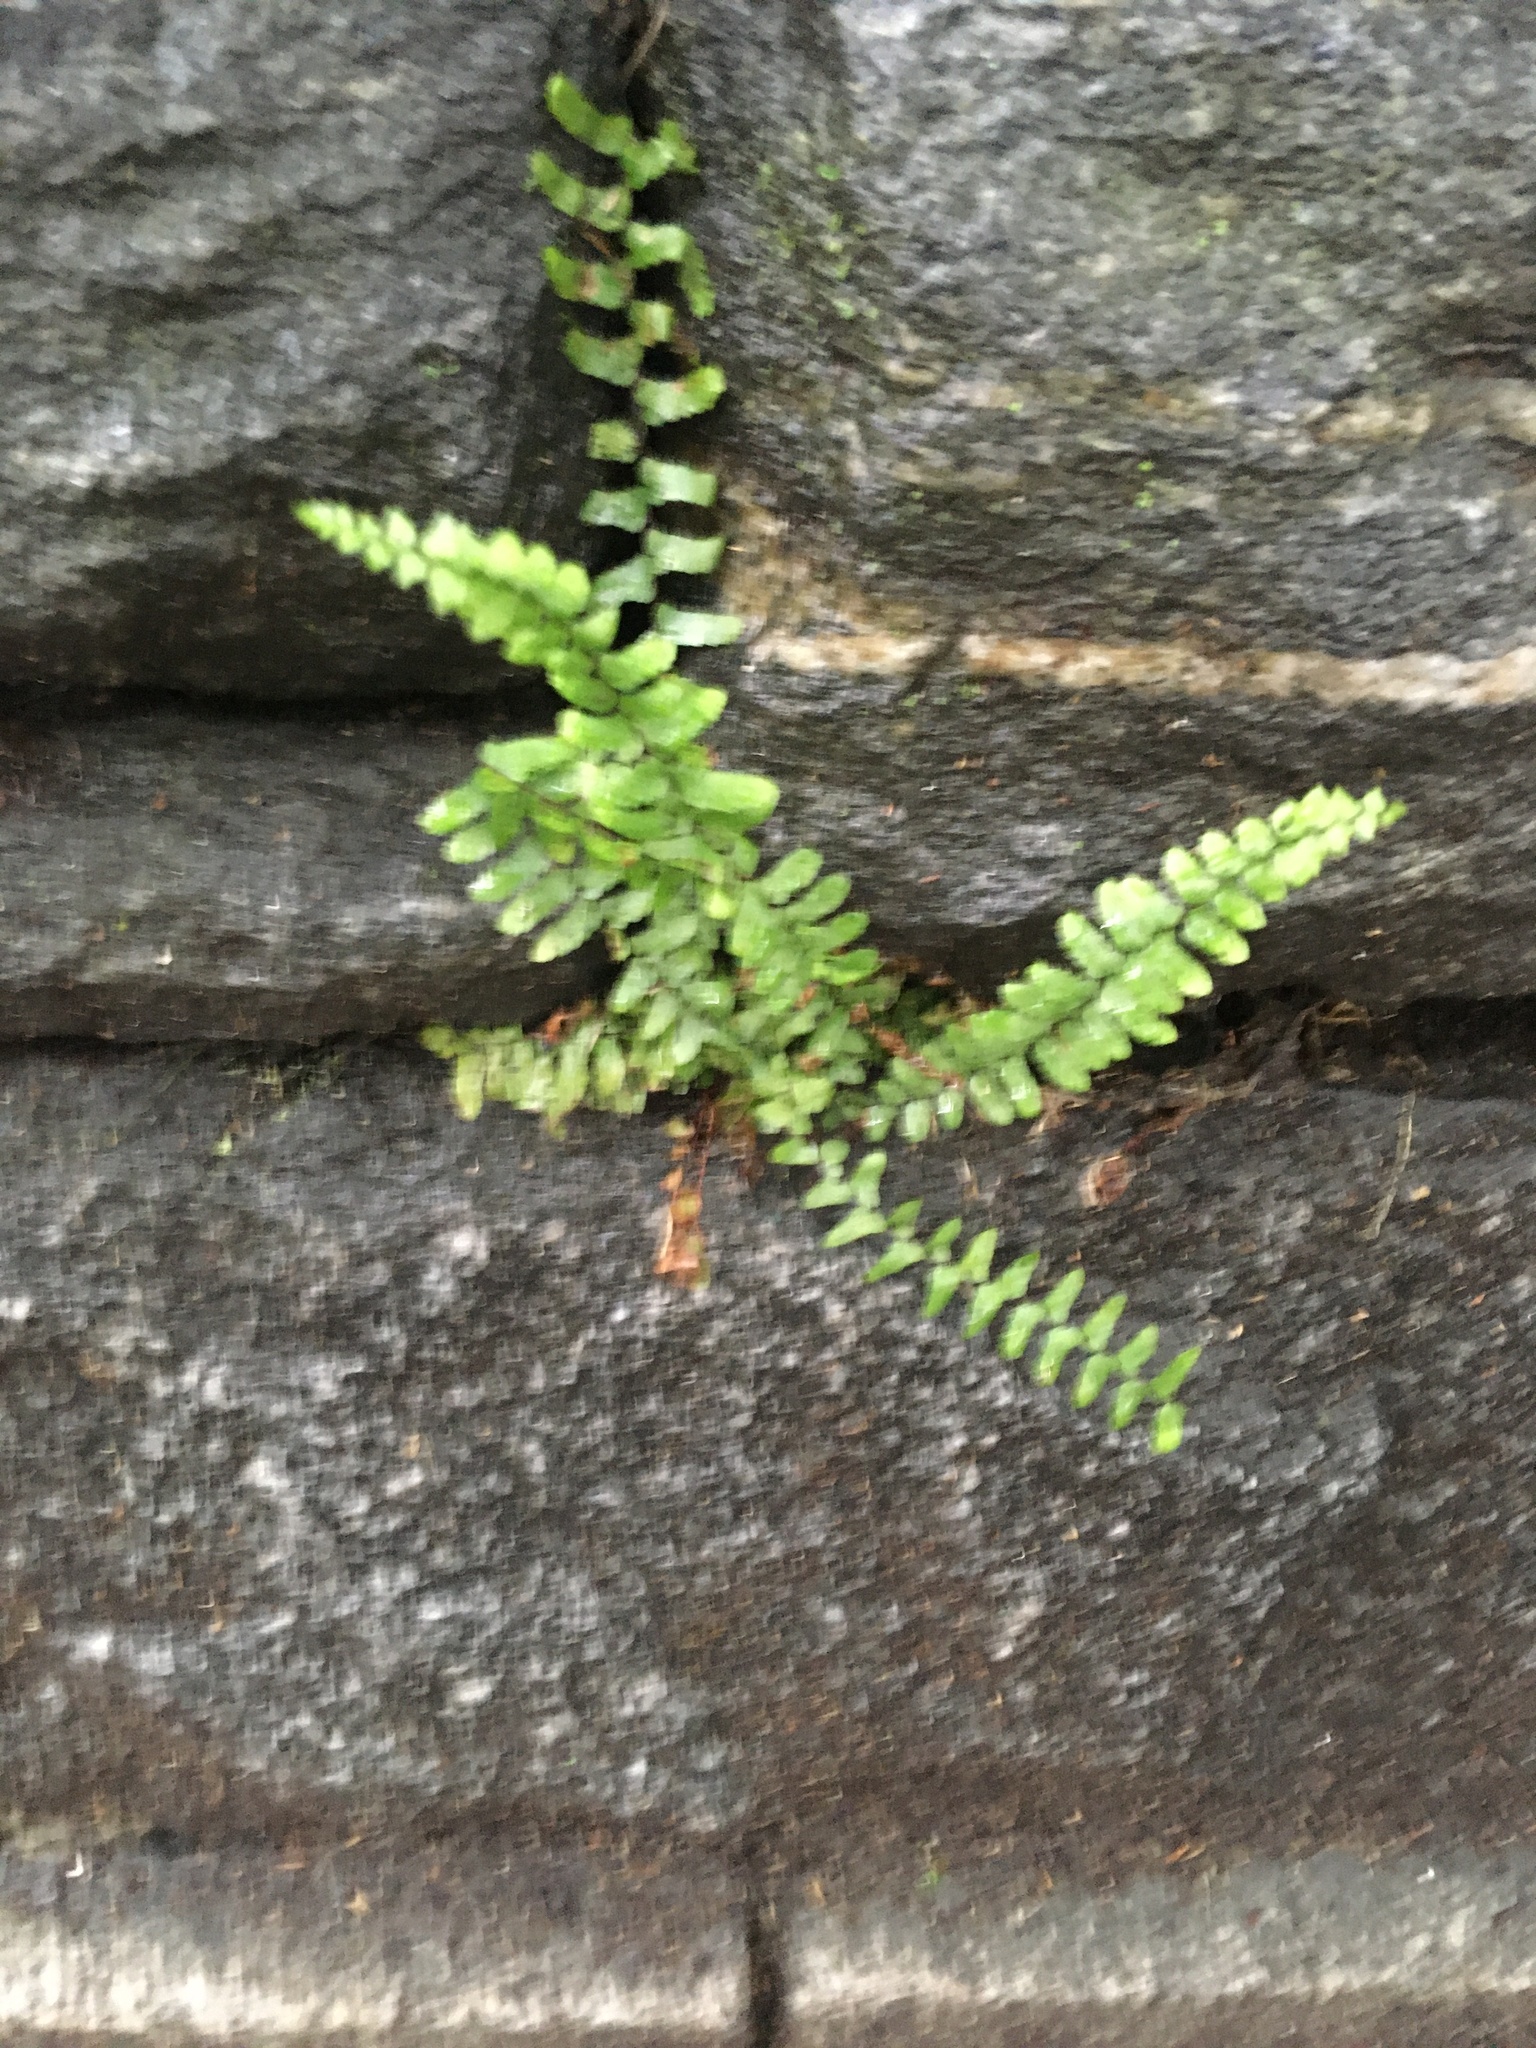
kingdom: Plantae
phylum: Tracheophyta
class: Polypodiopsida
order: Polypodiales
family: Aspleniaceae
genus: Asplenium
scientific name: Asplenium platyneuron
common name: Ebony spleenwort
